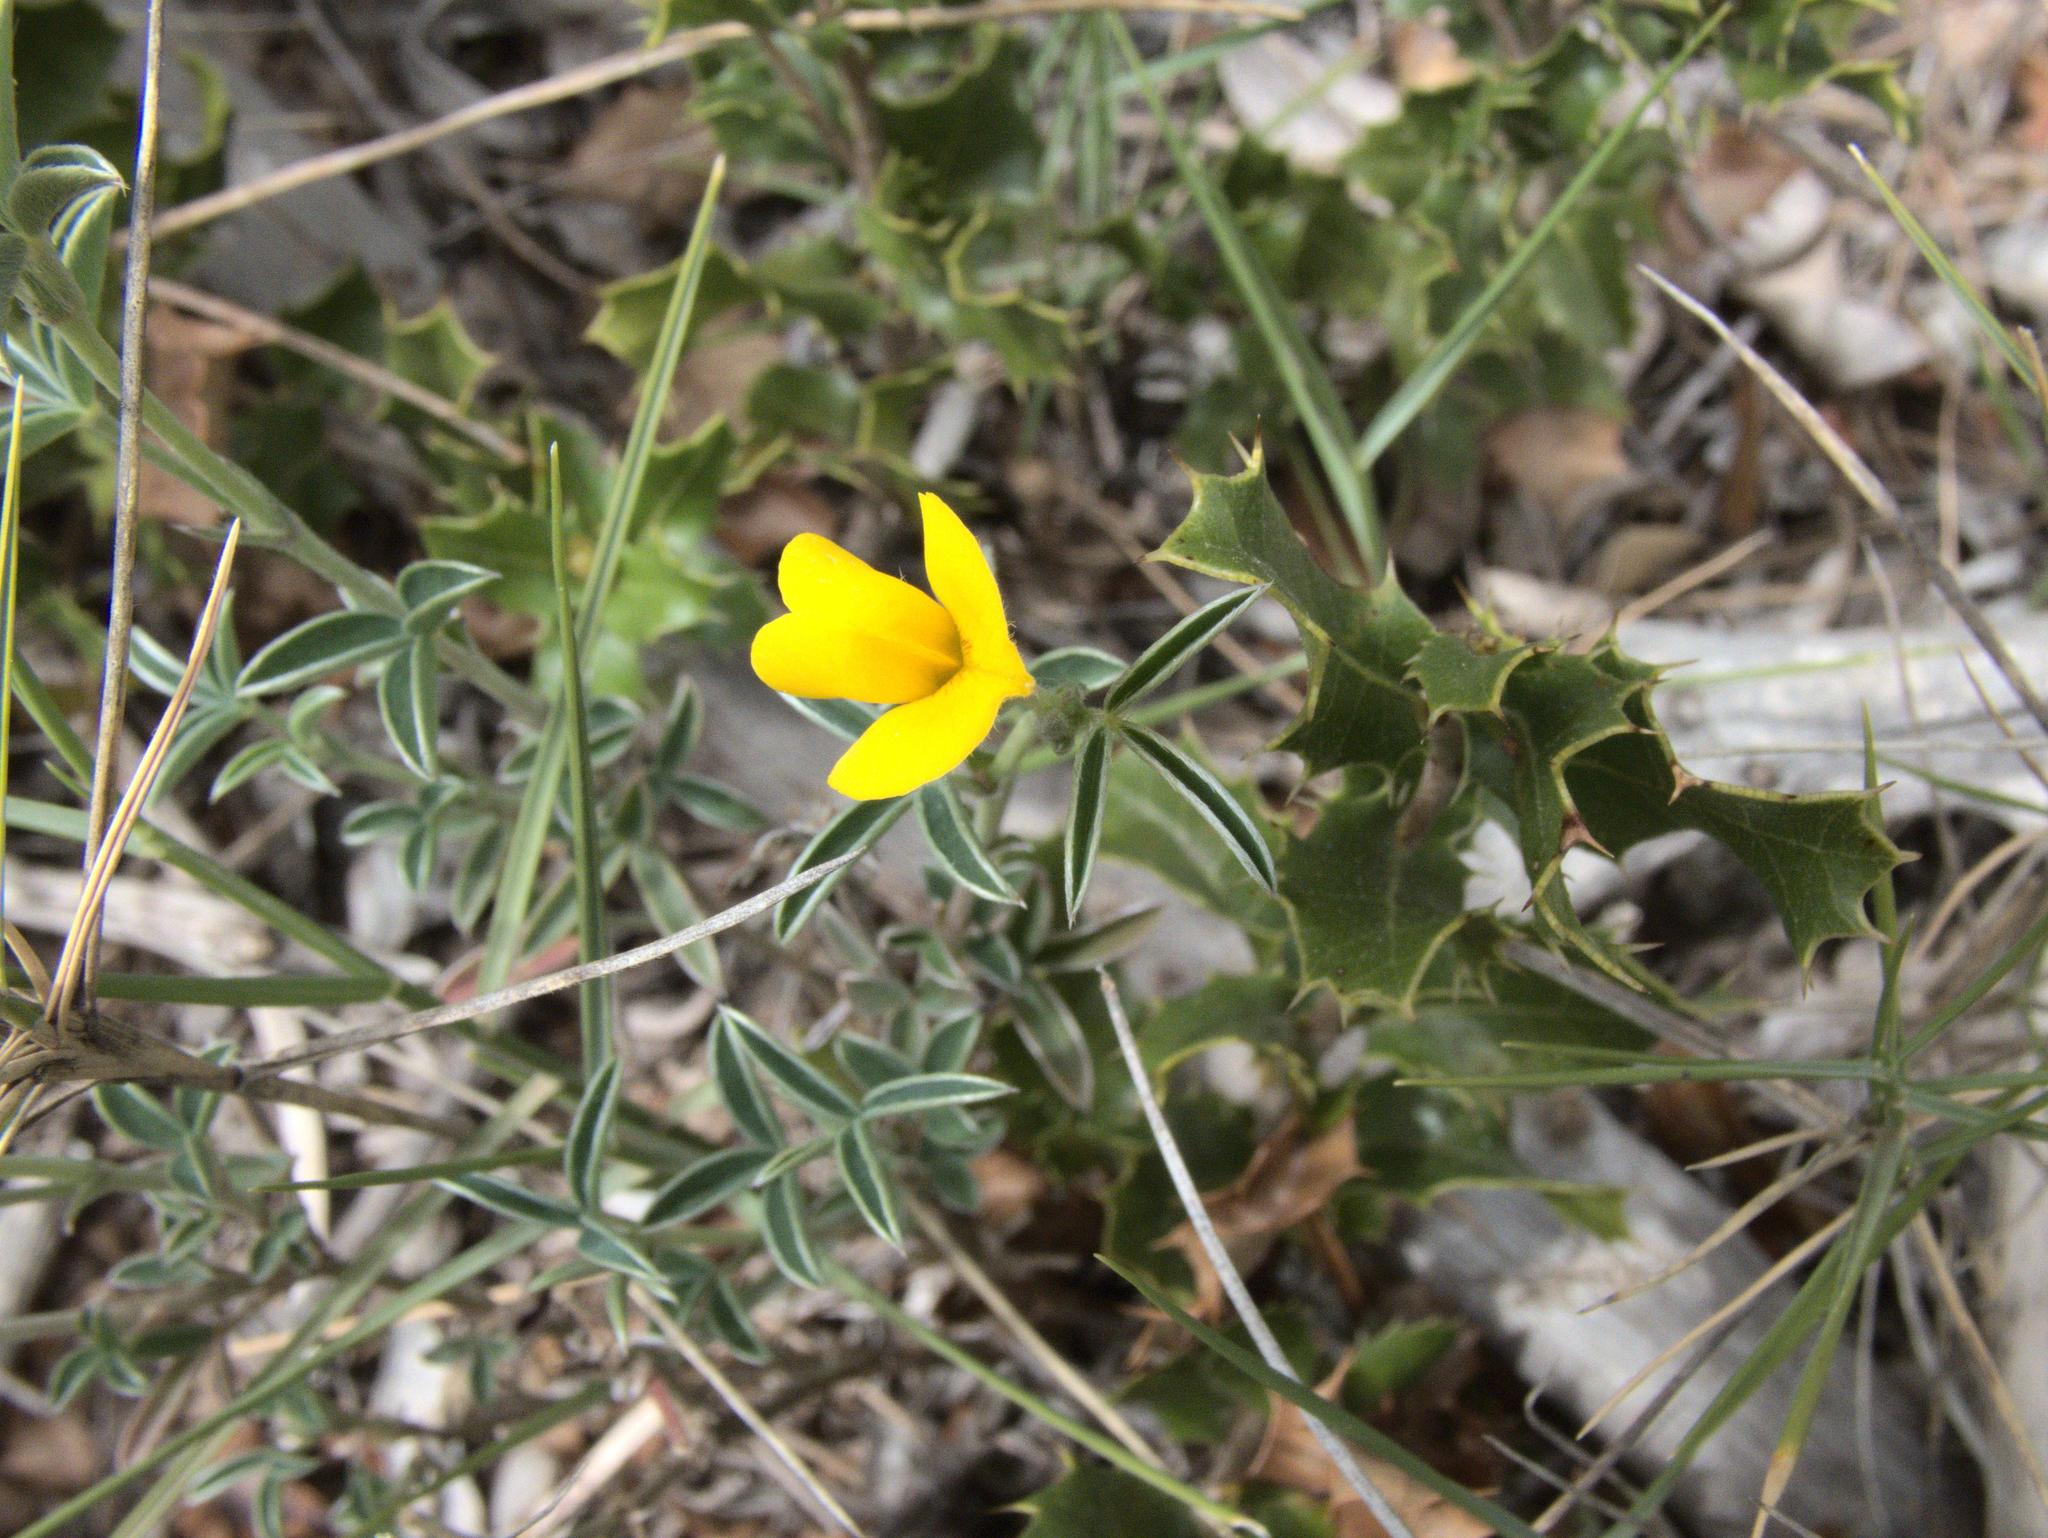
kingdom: Plantae
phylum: Tracheophyta
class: Magnoliopsida
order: Fabales
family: Fabaceae
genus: Argyrolobium
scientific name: Argyrolobium zanonii
